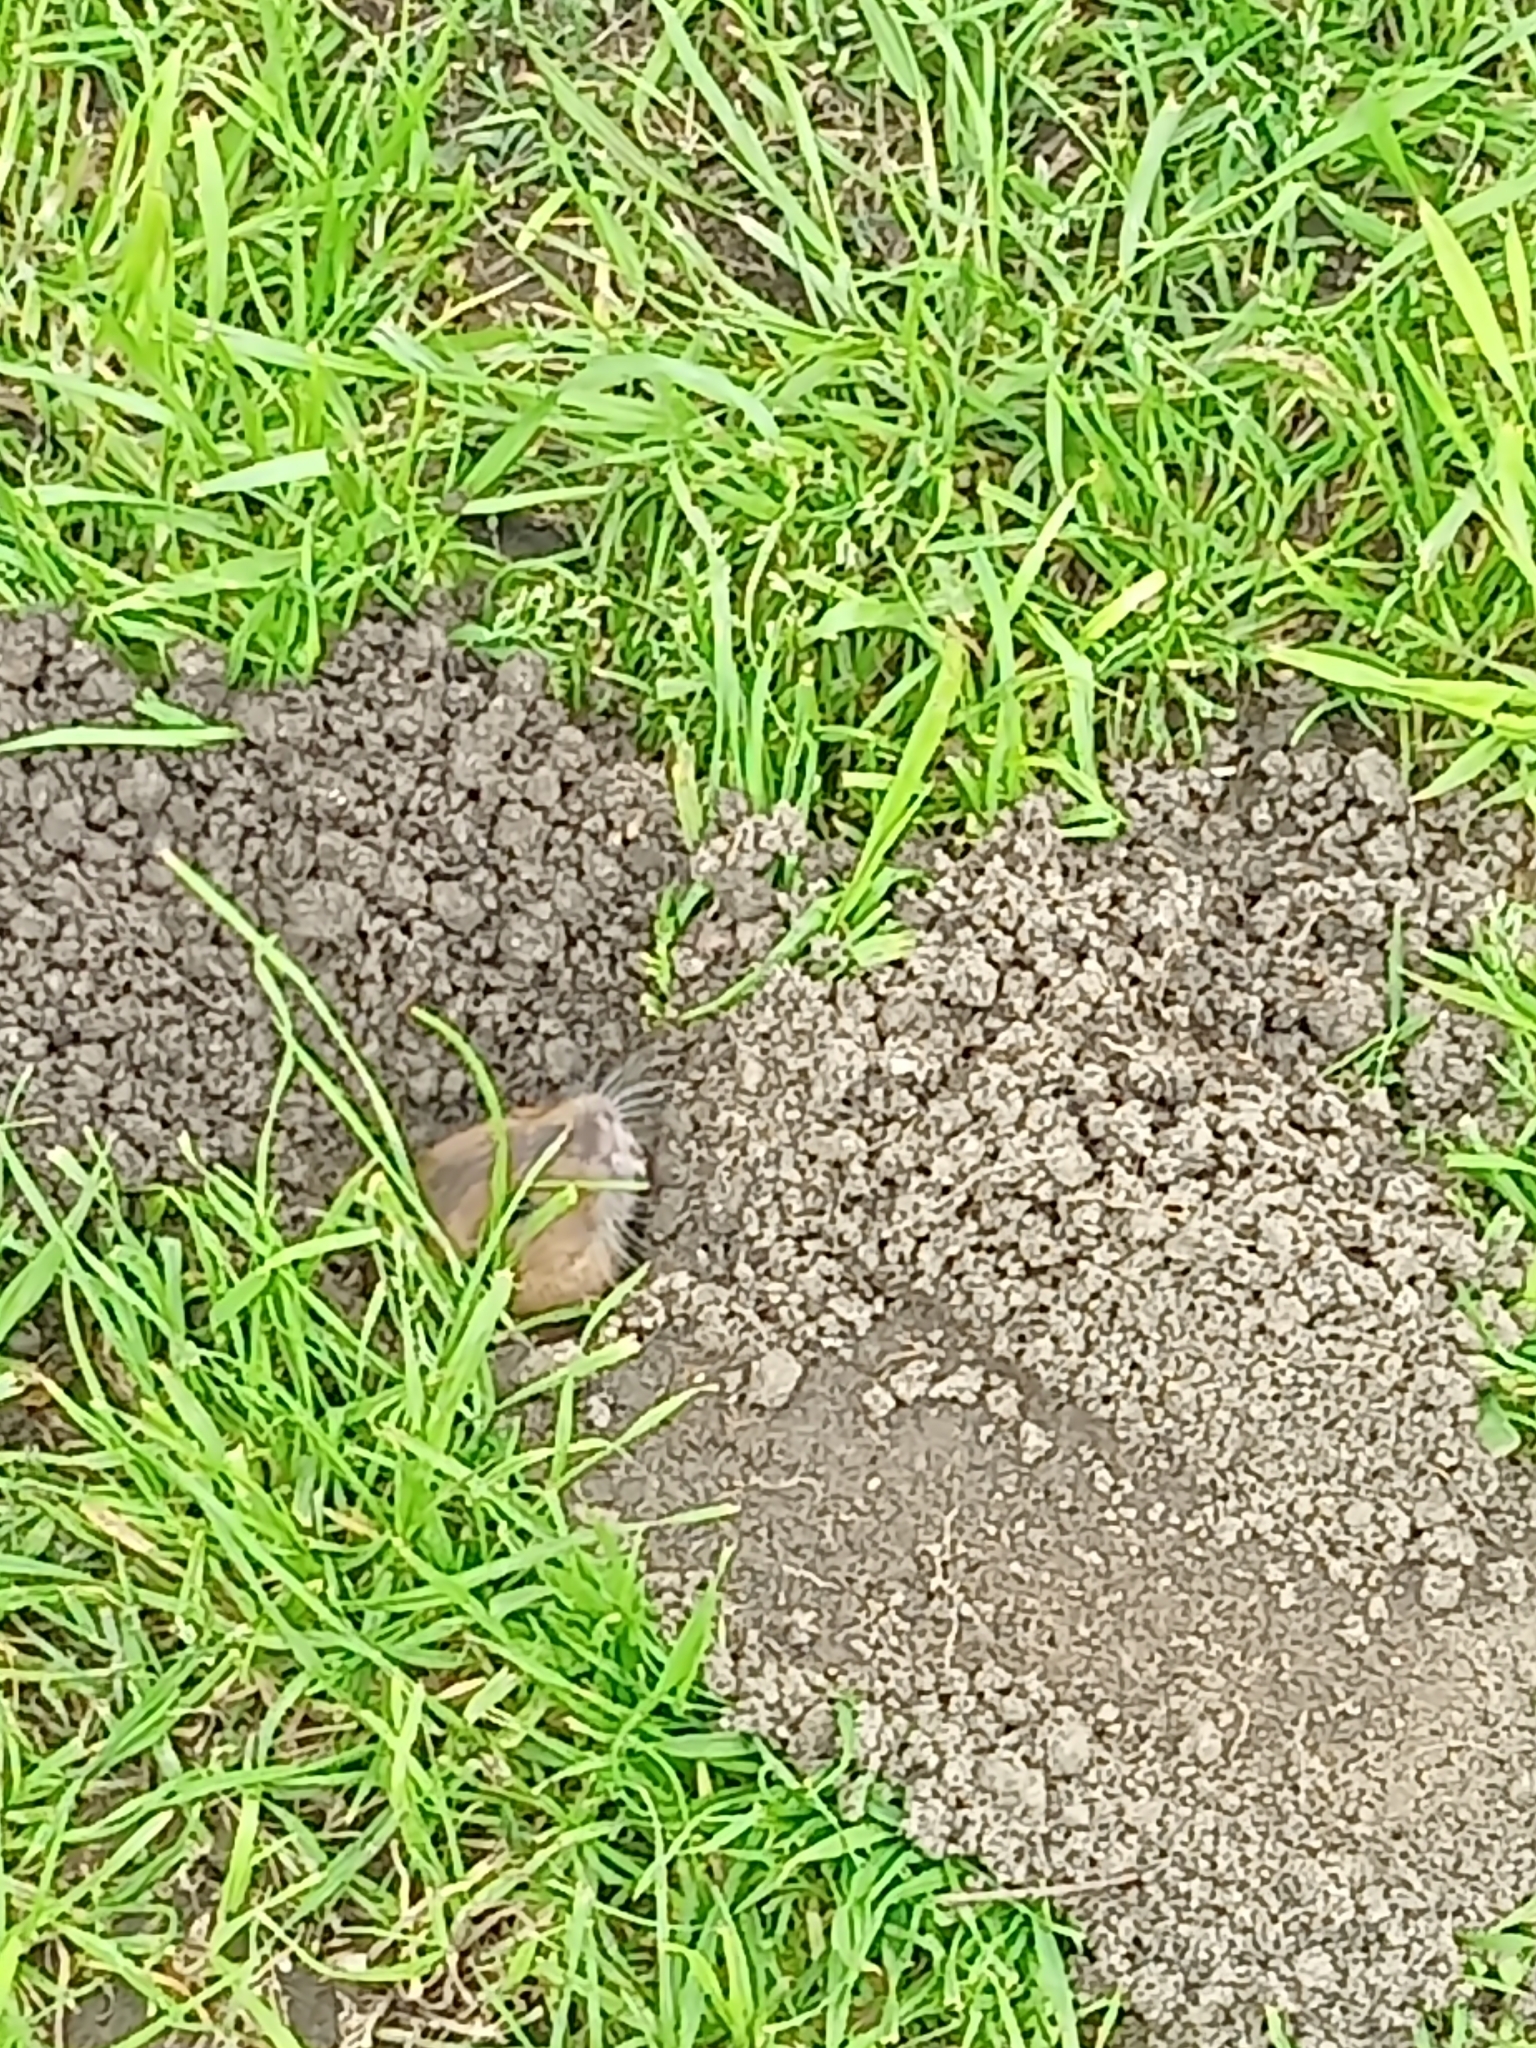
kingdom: Animalia
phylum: Chordata
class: Mammalia
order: Rodentia
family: Geomyidae
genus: Thomomys
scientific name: Thomomys bottae
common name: Botta's pocket gopher
